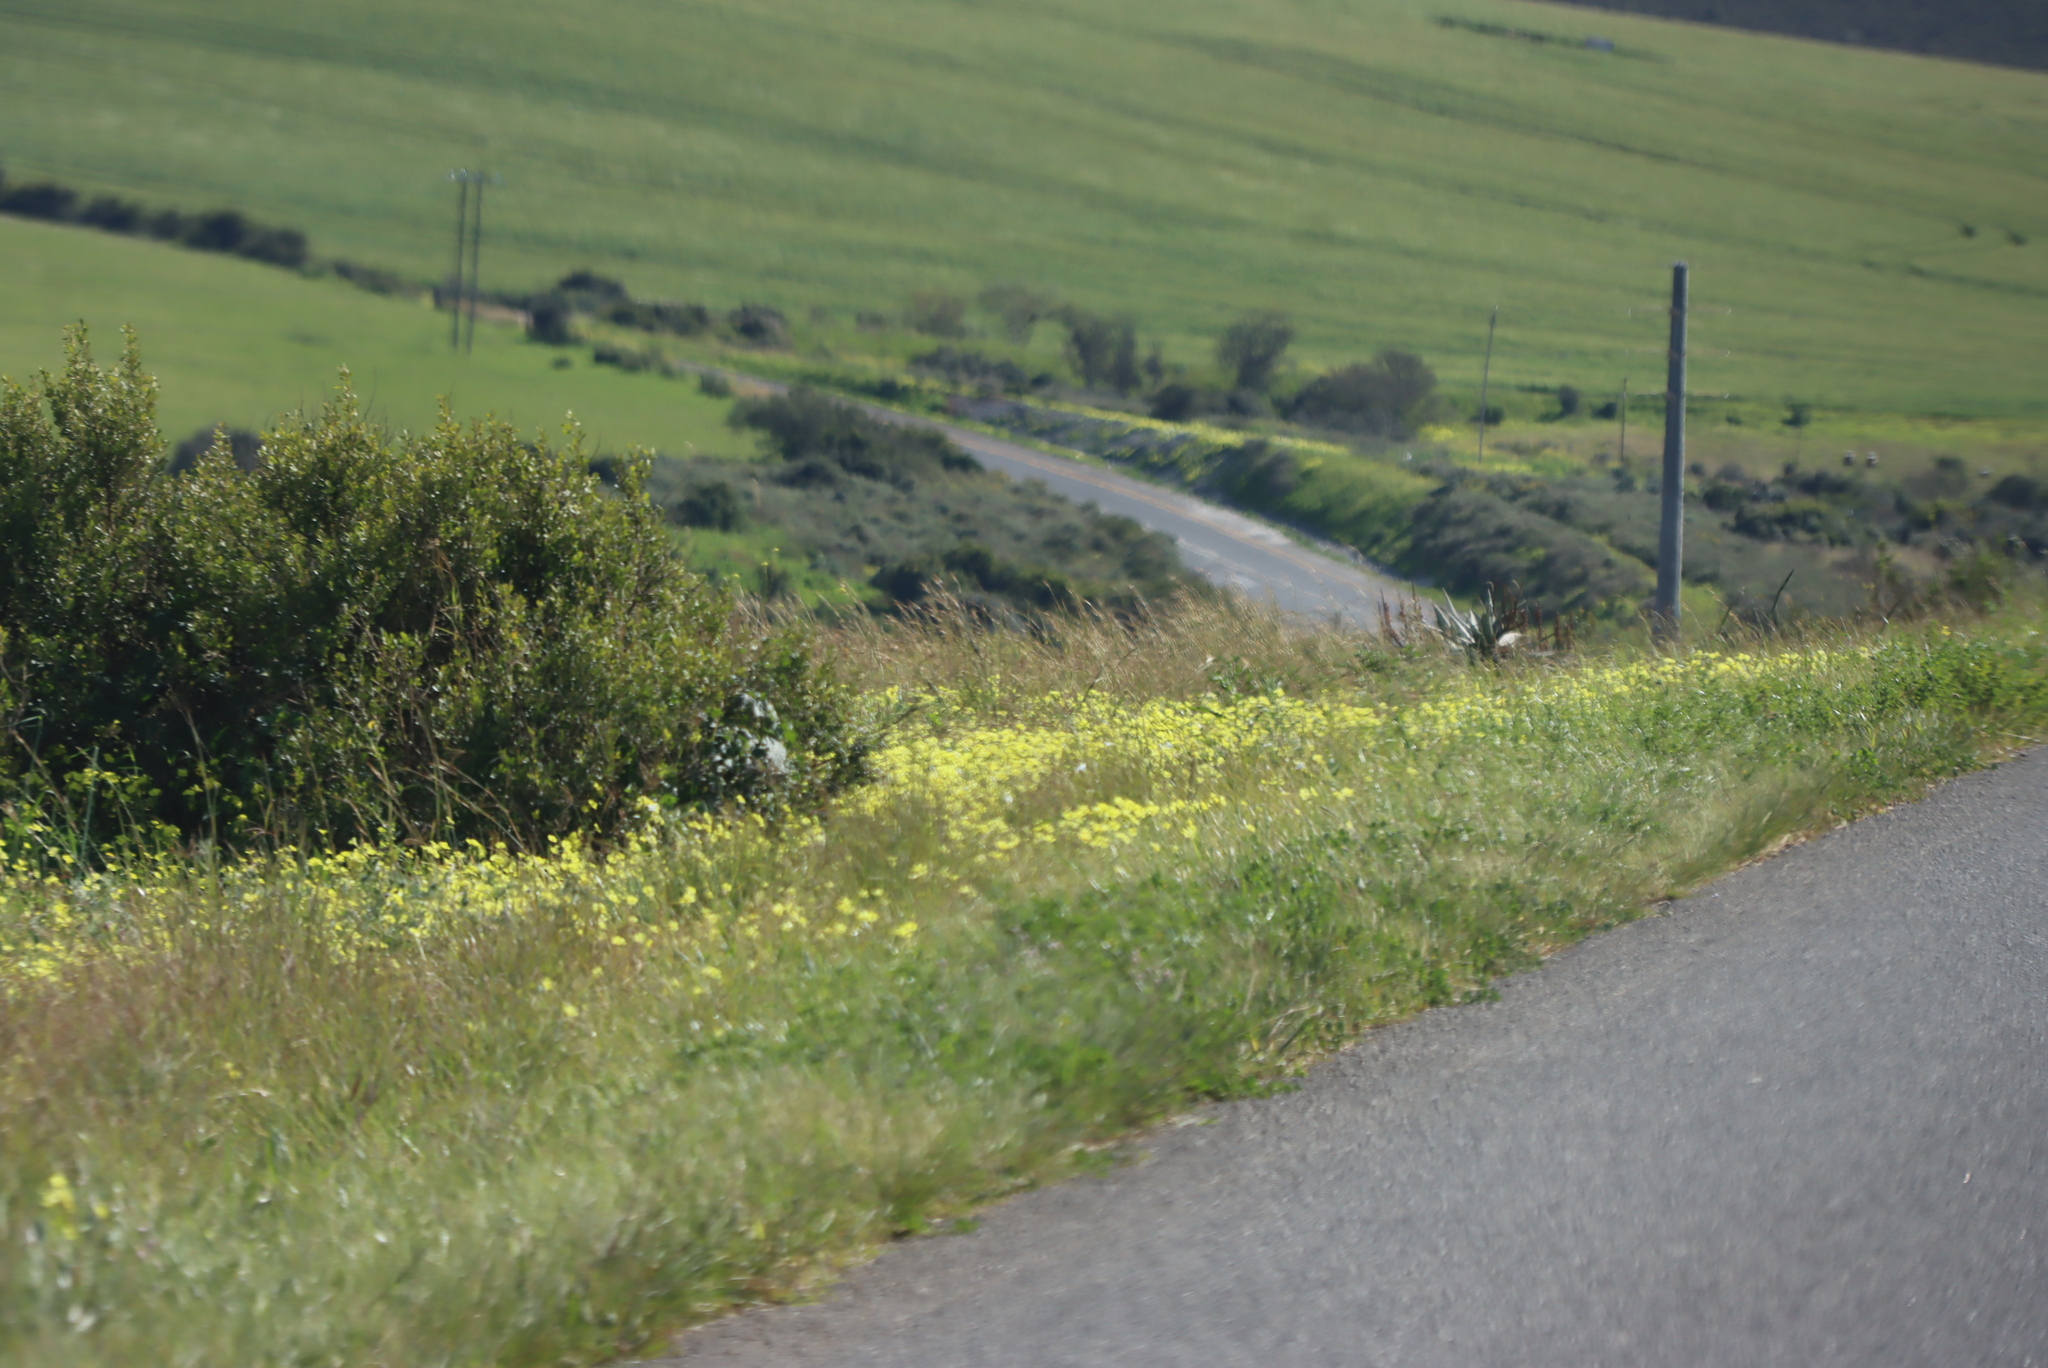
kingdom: Plantae
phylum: Tracheophyta
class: Magnoliopsida
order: Oxalidales
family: Oxalidaceae
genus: Oxalis
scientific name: Oxalis pes-caprae
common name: Bermuda-buttercup
